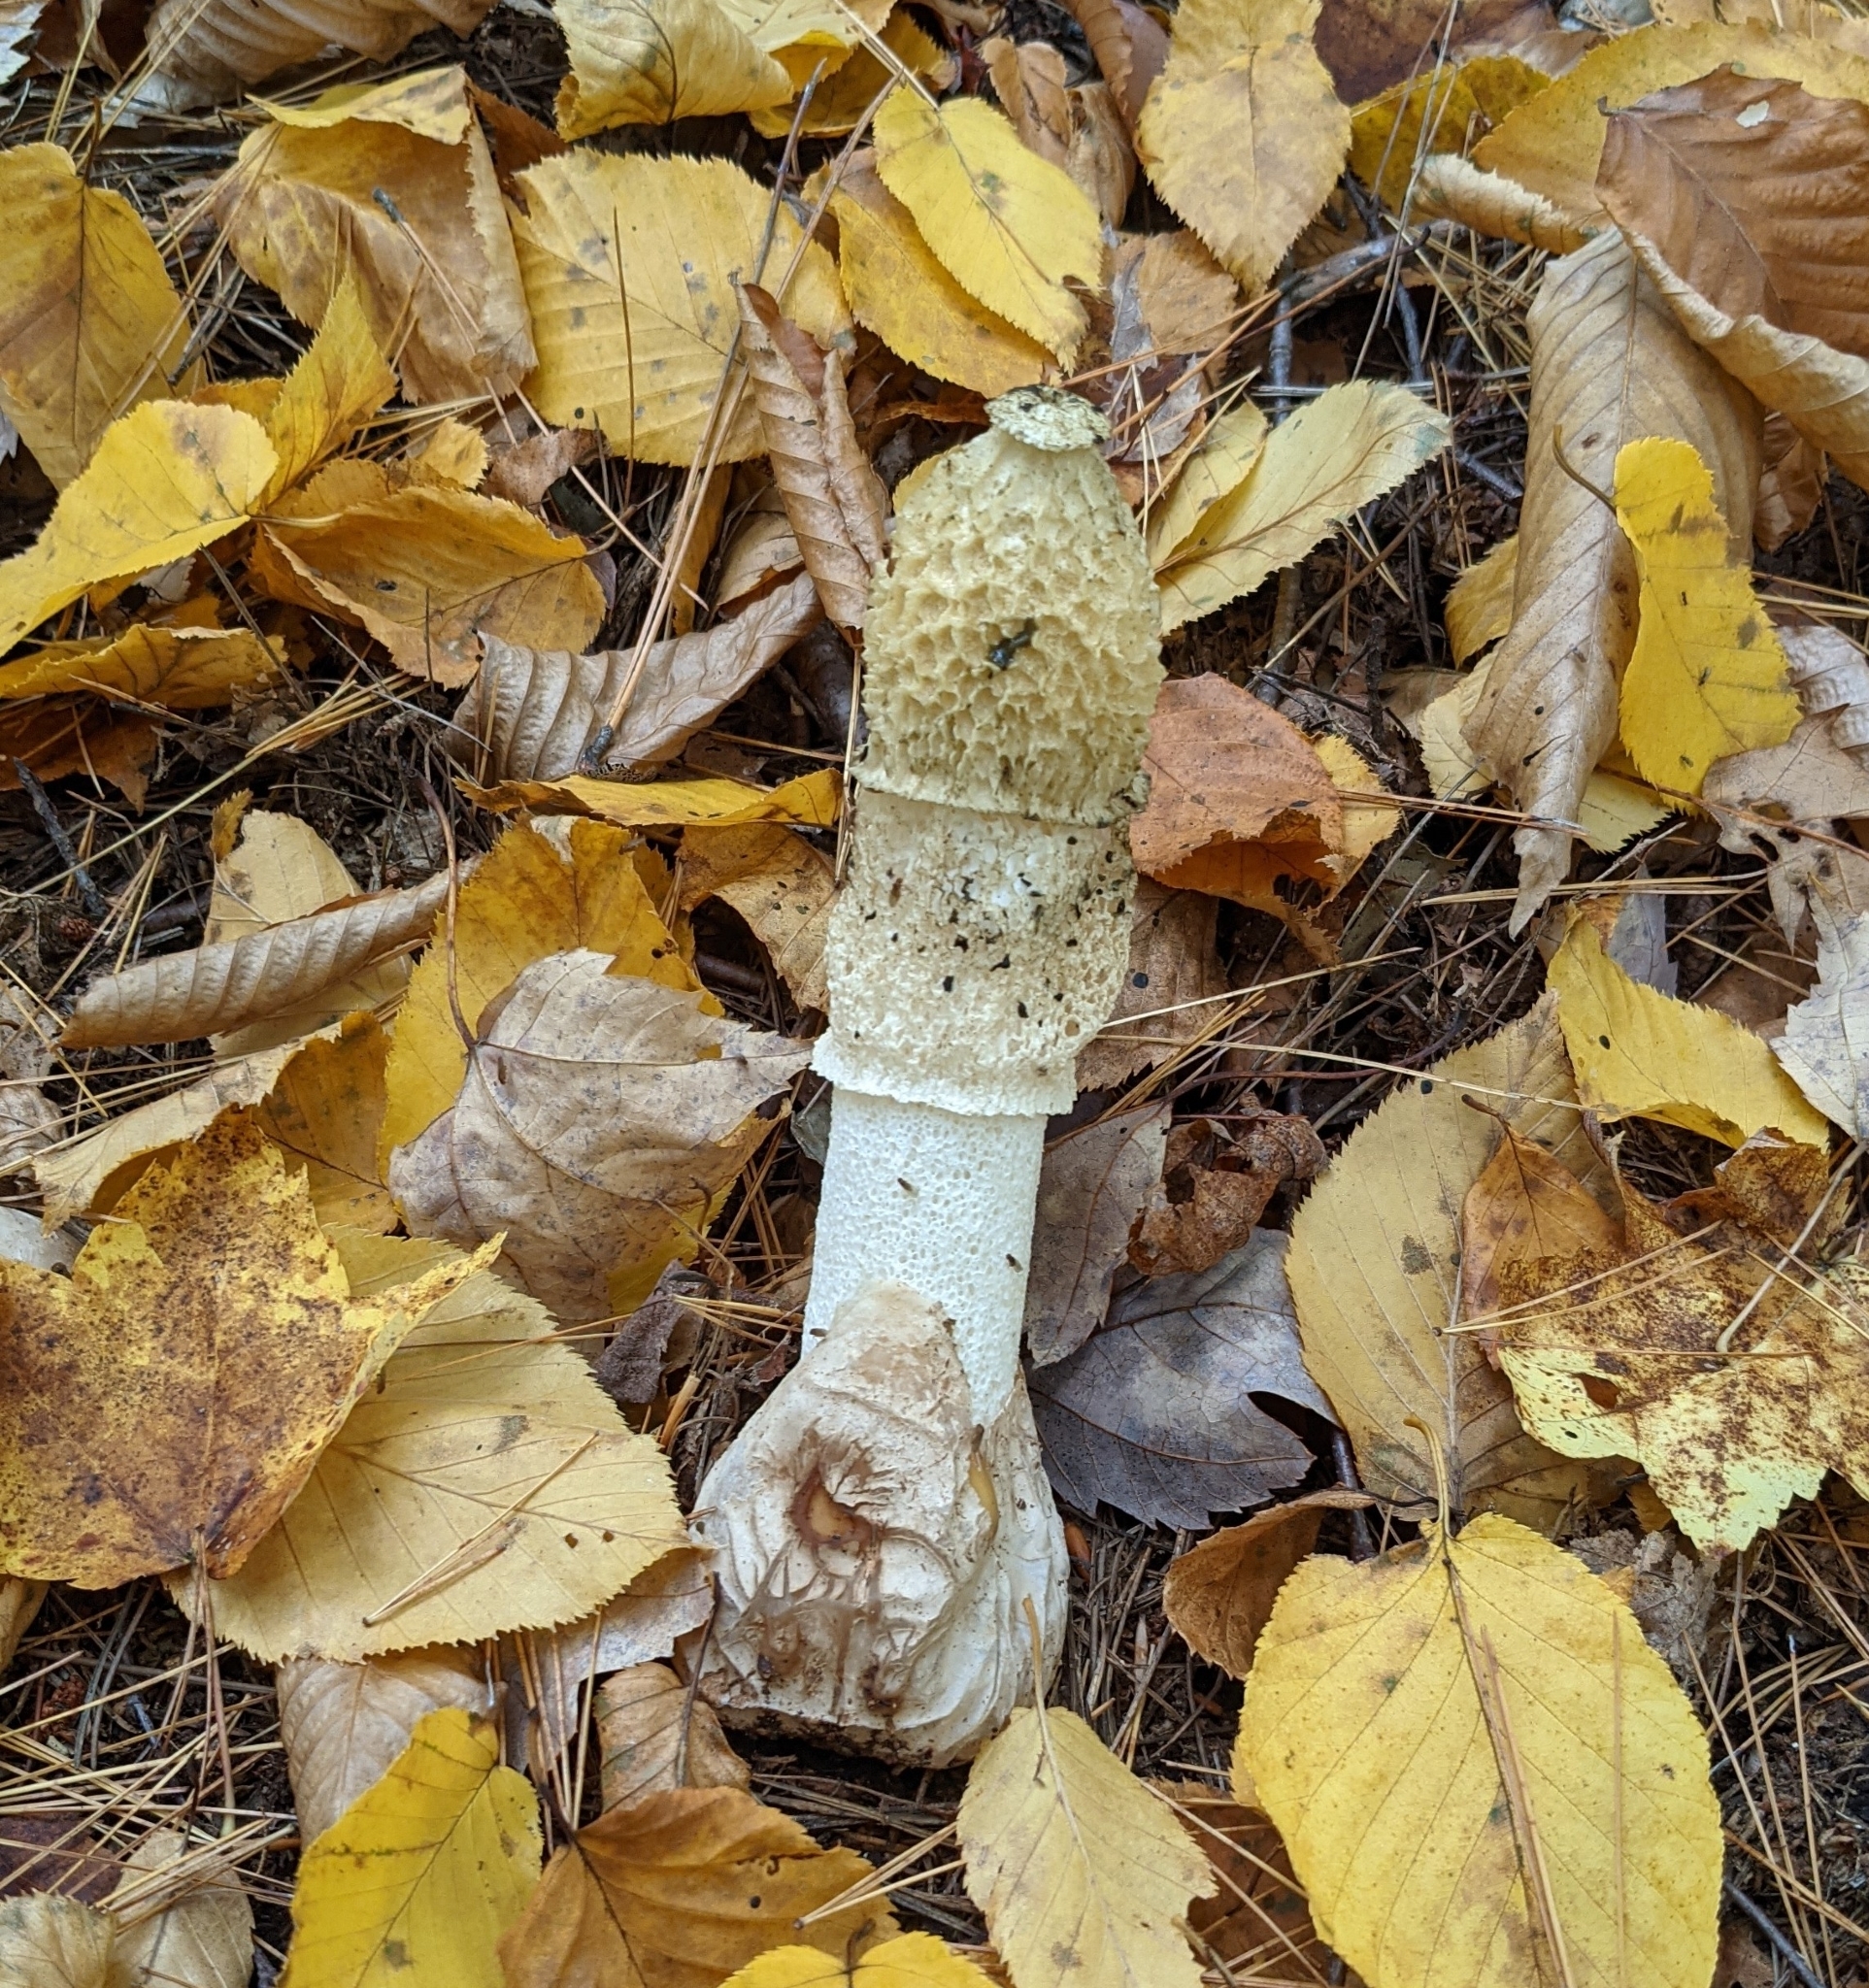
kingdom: Fungi
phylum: Basidiomycota
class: Agaricomycetes
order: Phallales
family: Phallaceae
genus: Phallus
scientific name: Phallus indusiatus
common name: Bridal veil stinkhorn
